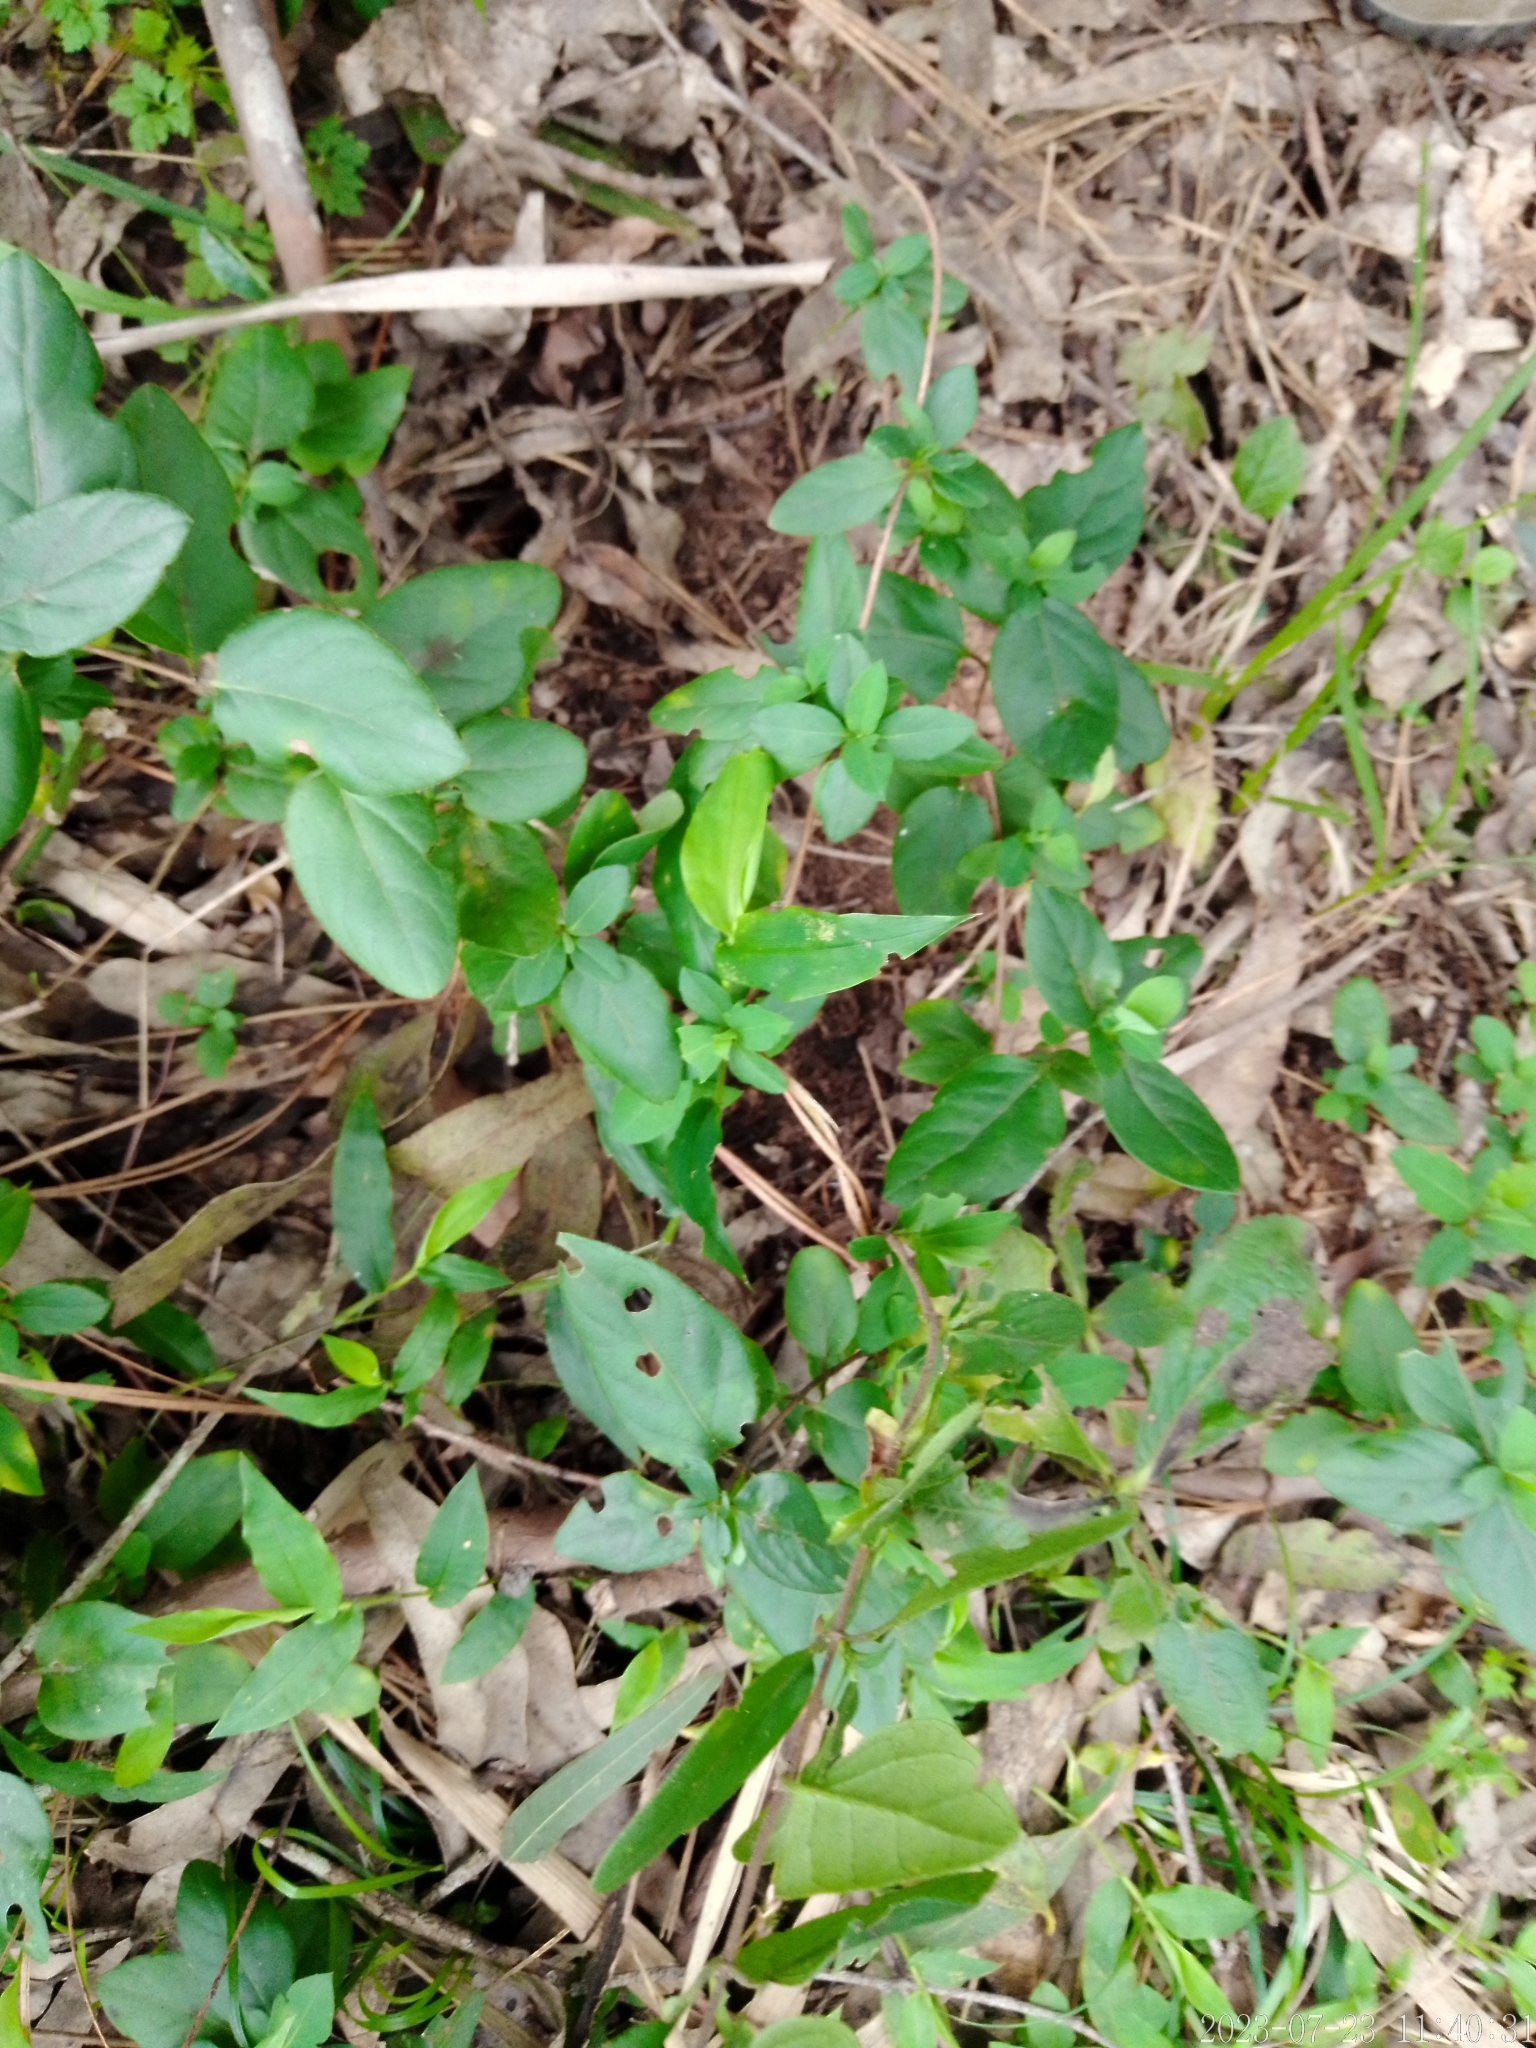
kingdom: Plantae
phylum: Tracheophyta
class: Magnoliopsida
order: Dipsacales
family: Caprifoliaceae
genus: Lonicera
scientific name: Lonicera japonica
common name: Japanese honeysuckle
